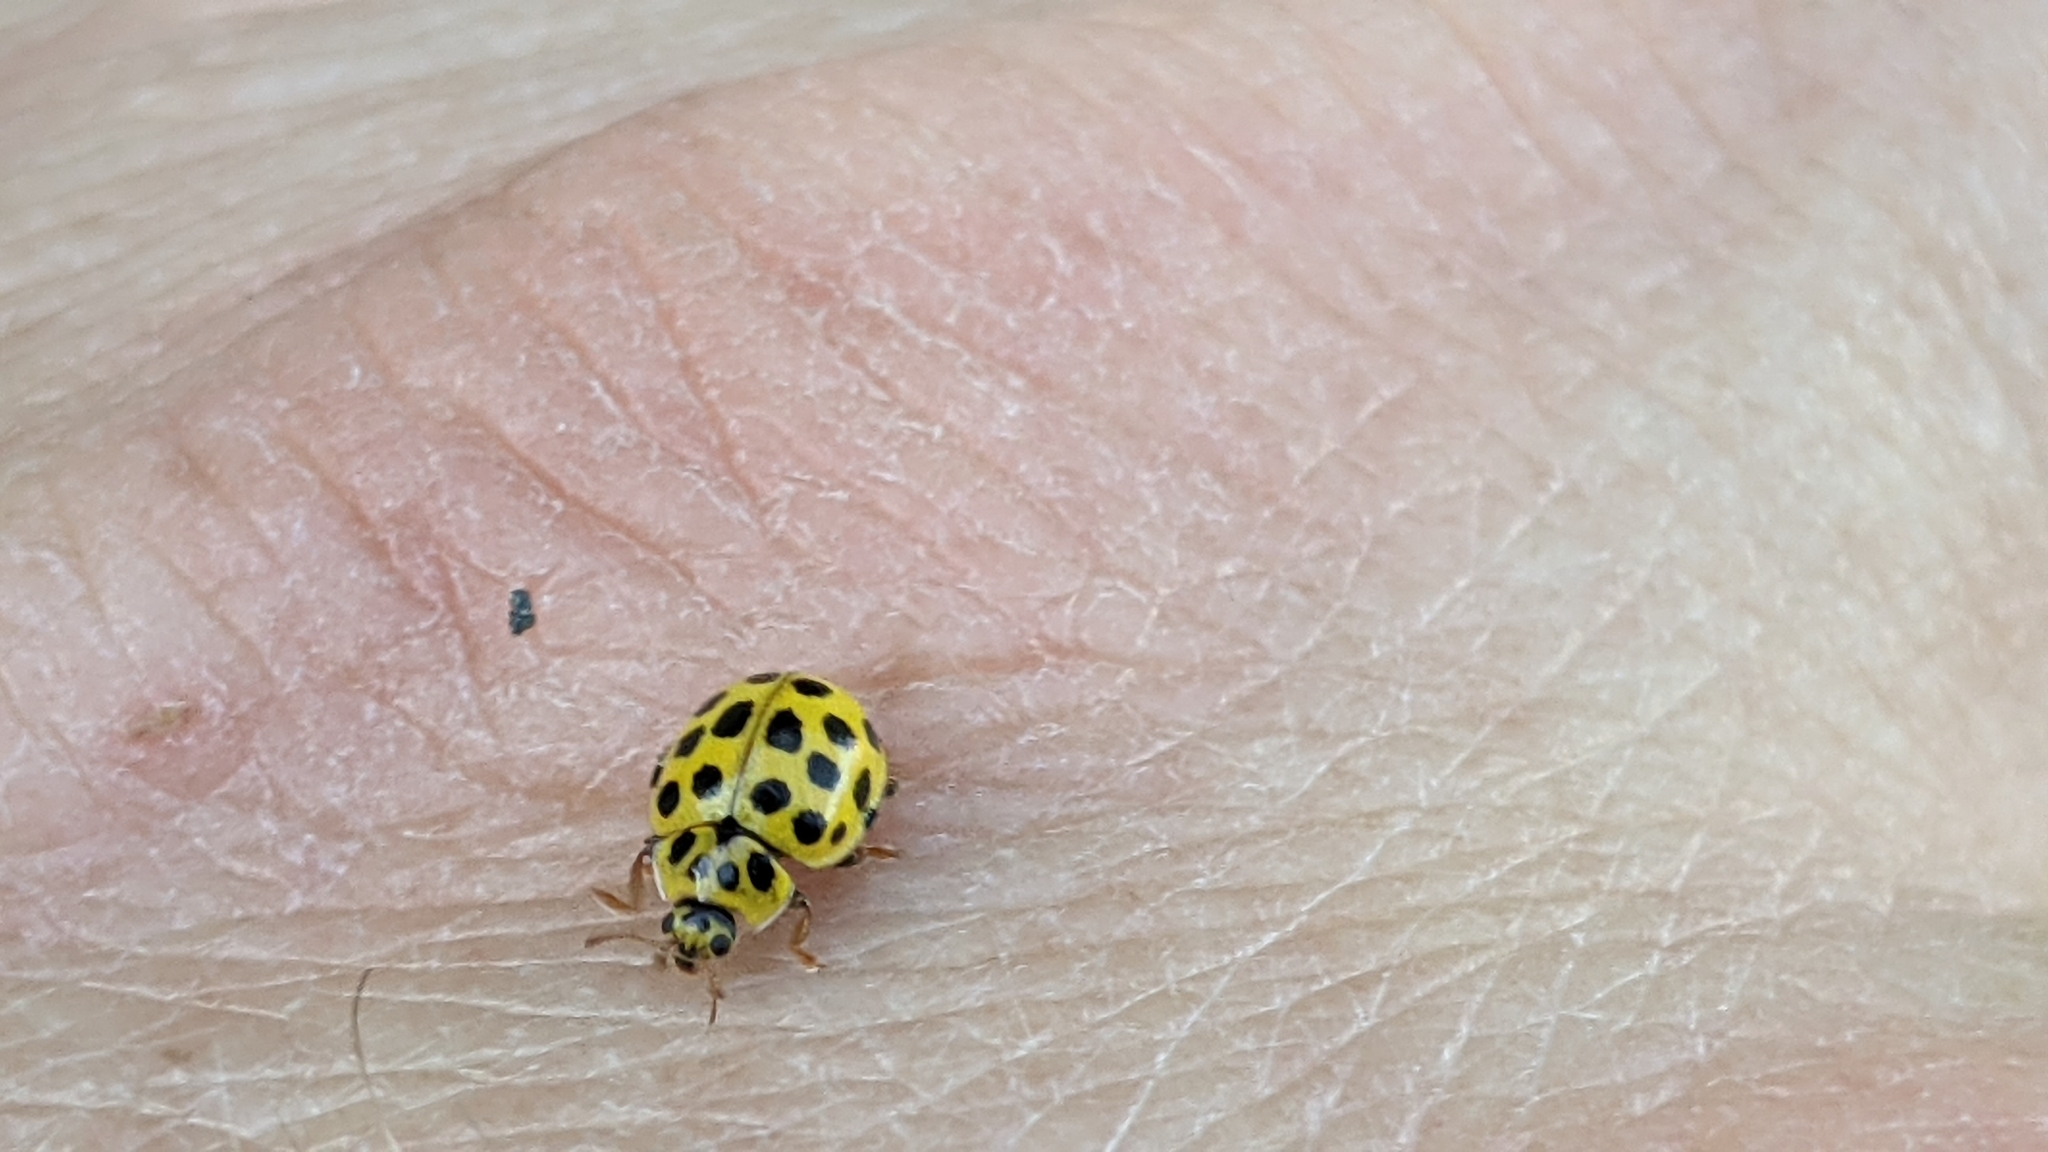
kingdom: Animalia
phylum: Arthropoda
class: Insecta
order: Coleoptera
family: Coccinellidae
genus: Psyllobora
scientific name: Psyllobora vigintiduopunctata
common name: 22-spot ladybird
